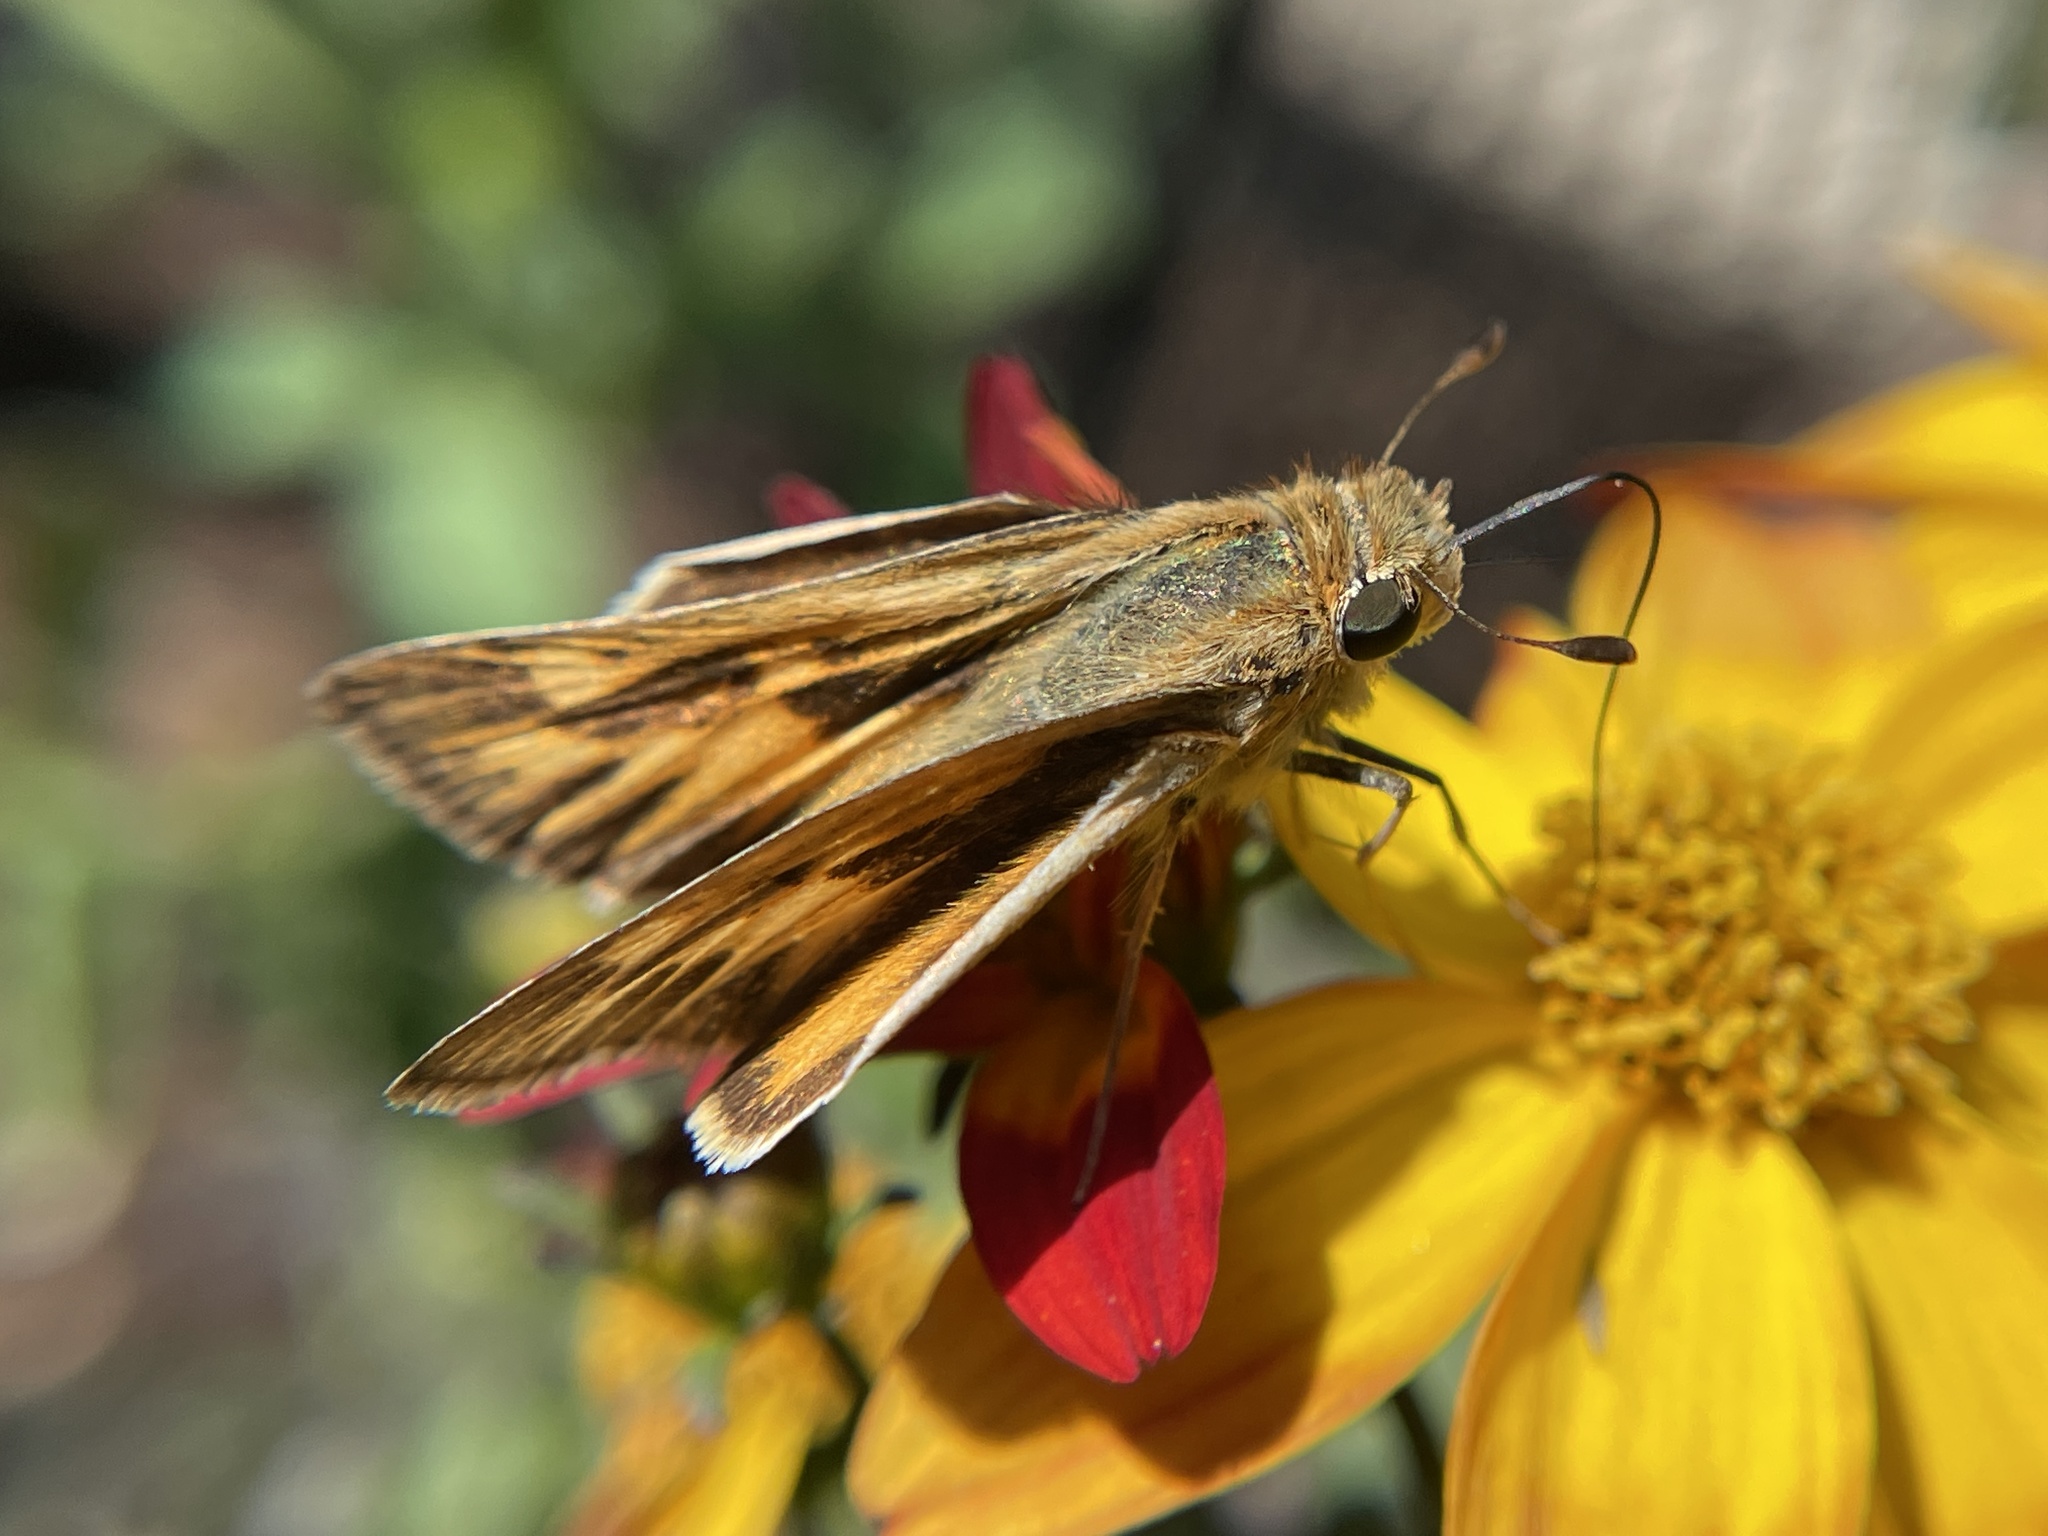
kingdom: Animalia
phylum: Arthropoda
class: Insecta
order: Lepidoptera
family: Hesperiidae
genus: Hylephila
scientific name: Hylephila phyleus
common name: Fiery skipper
